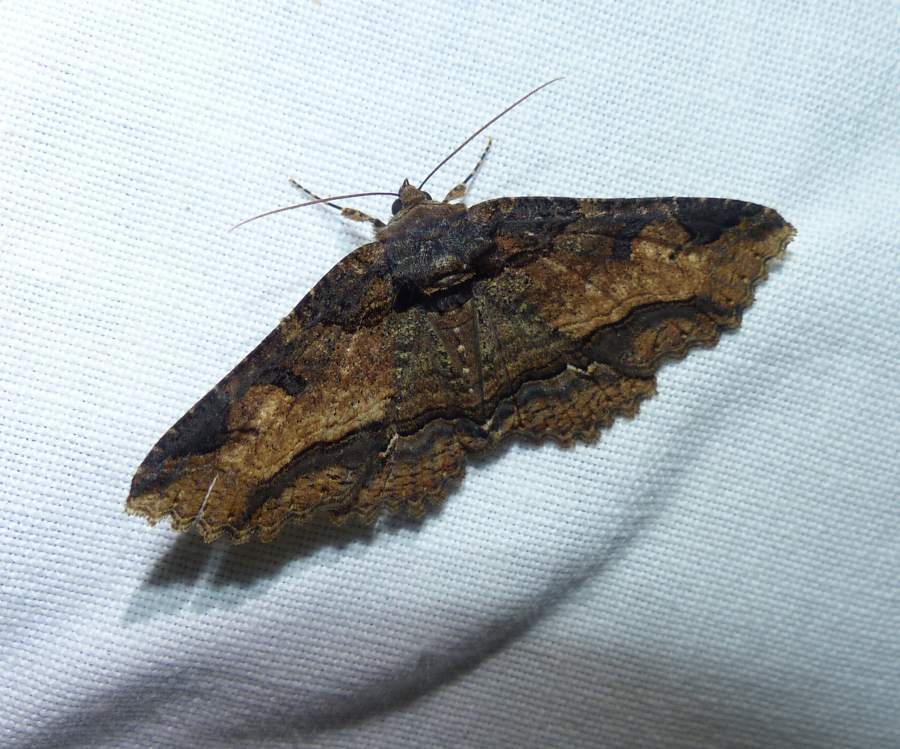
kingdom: Animalia
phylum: Arthropoda
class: Insecta
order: Lepidoptera
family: Erebidae
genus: Zale
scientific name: Zale minerea
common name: Colorful zale moth
